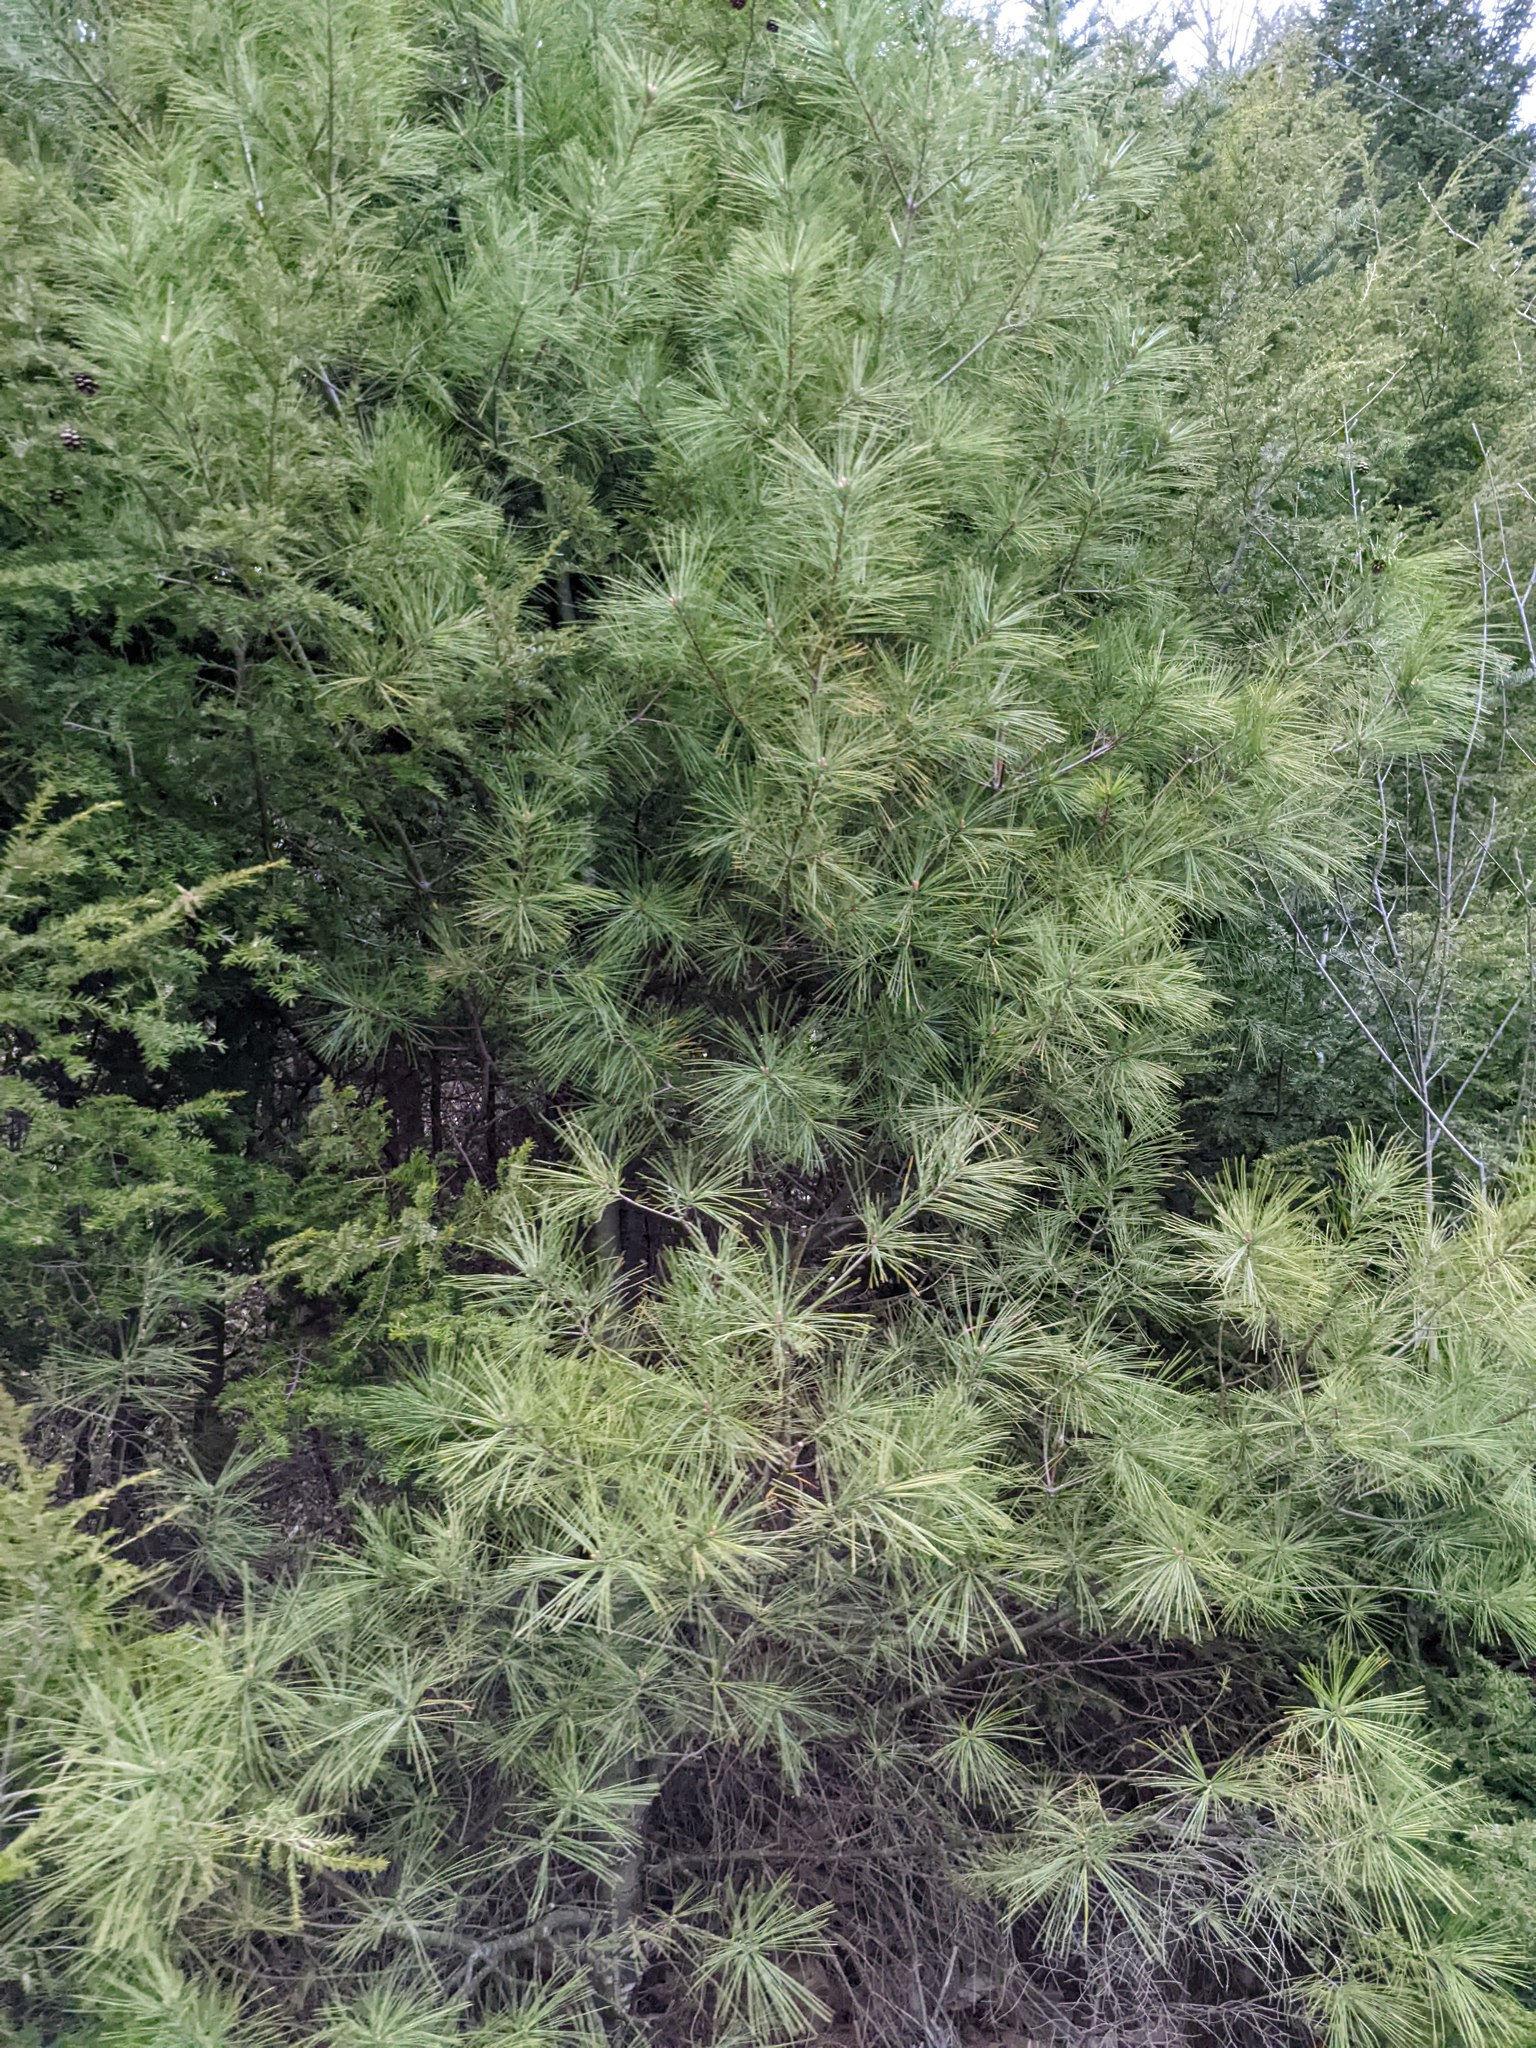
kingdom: Plantae
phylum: Tracheophyta
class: Pinopsida
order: Pinales
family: Pinaceae
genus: Pinus
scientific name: Pinus strobus
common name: Weymouth pine
